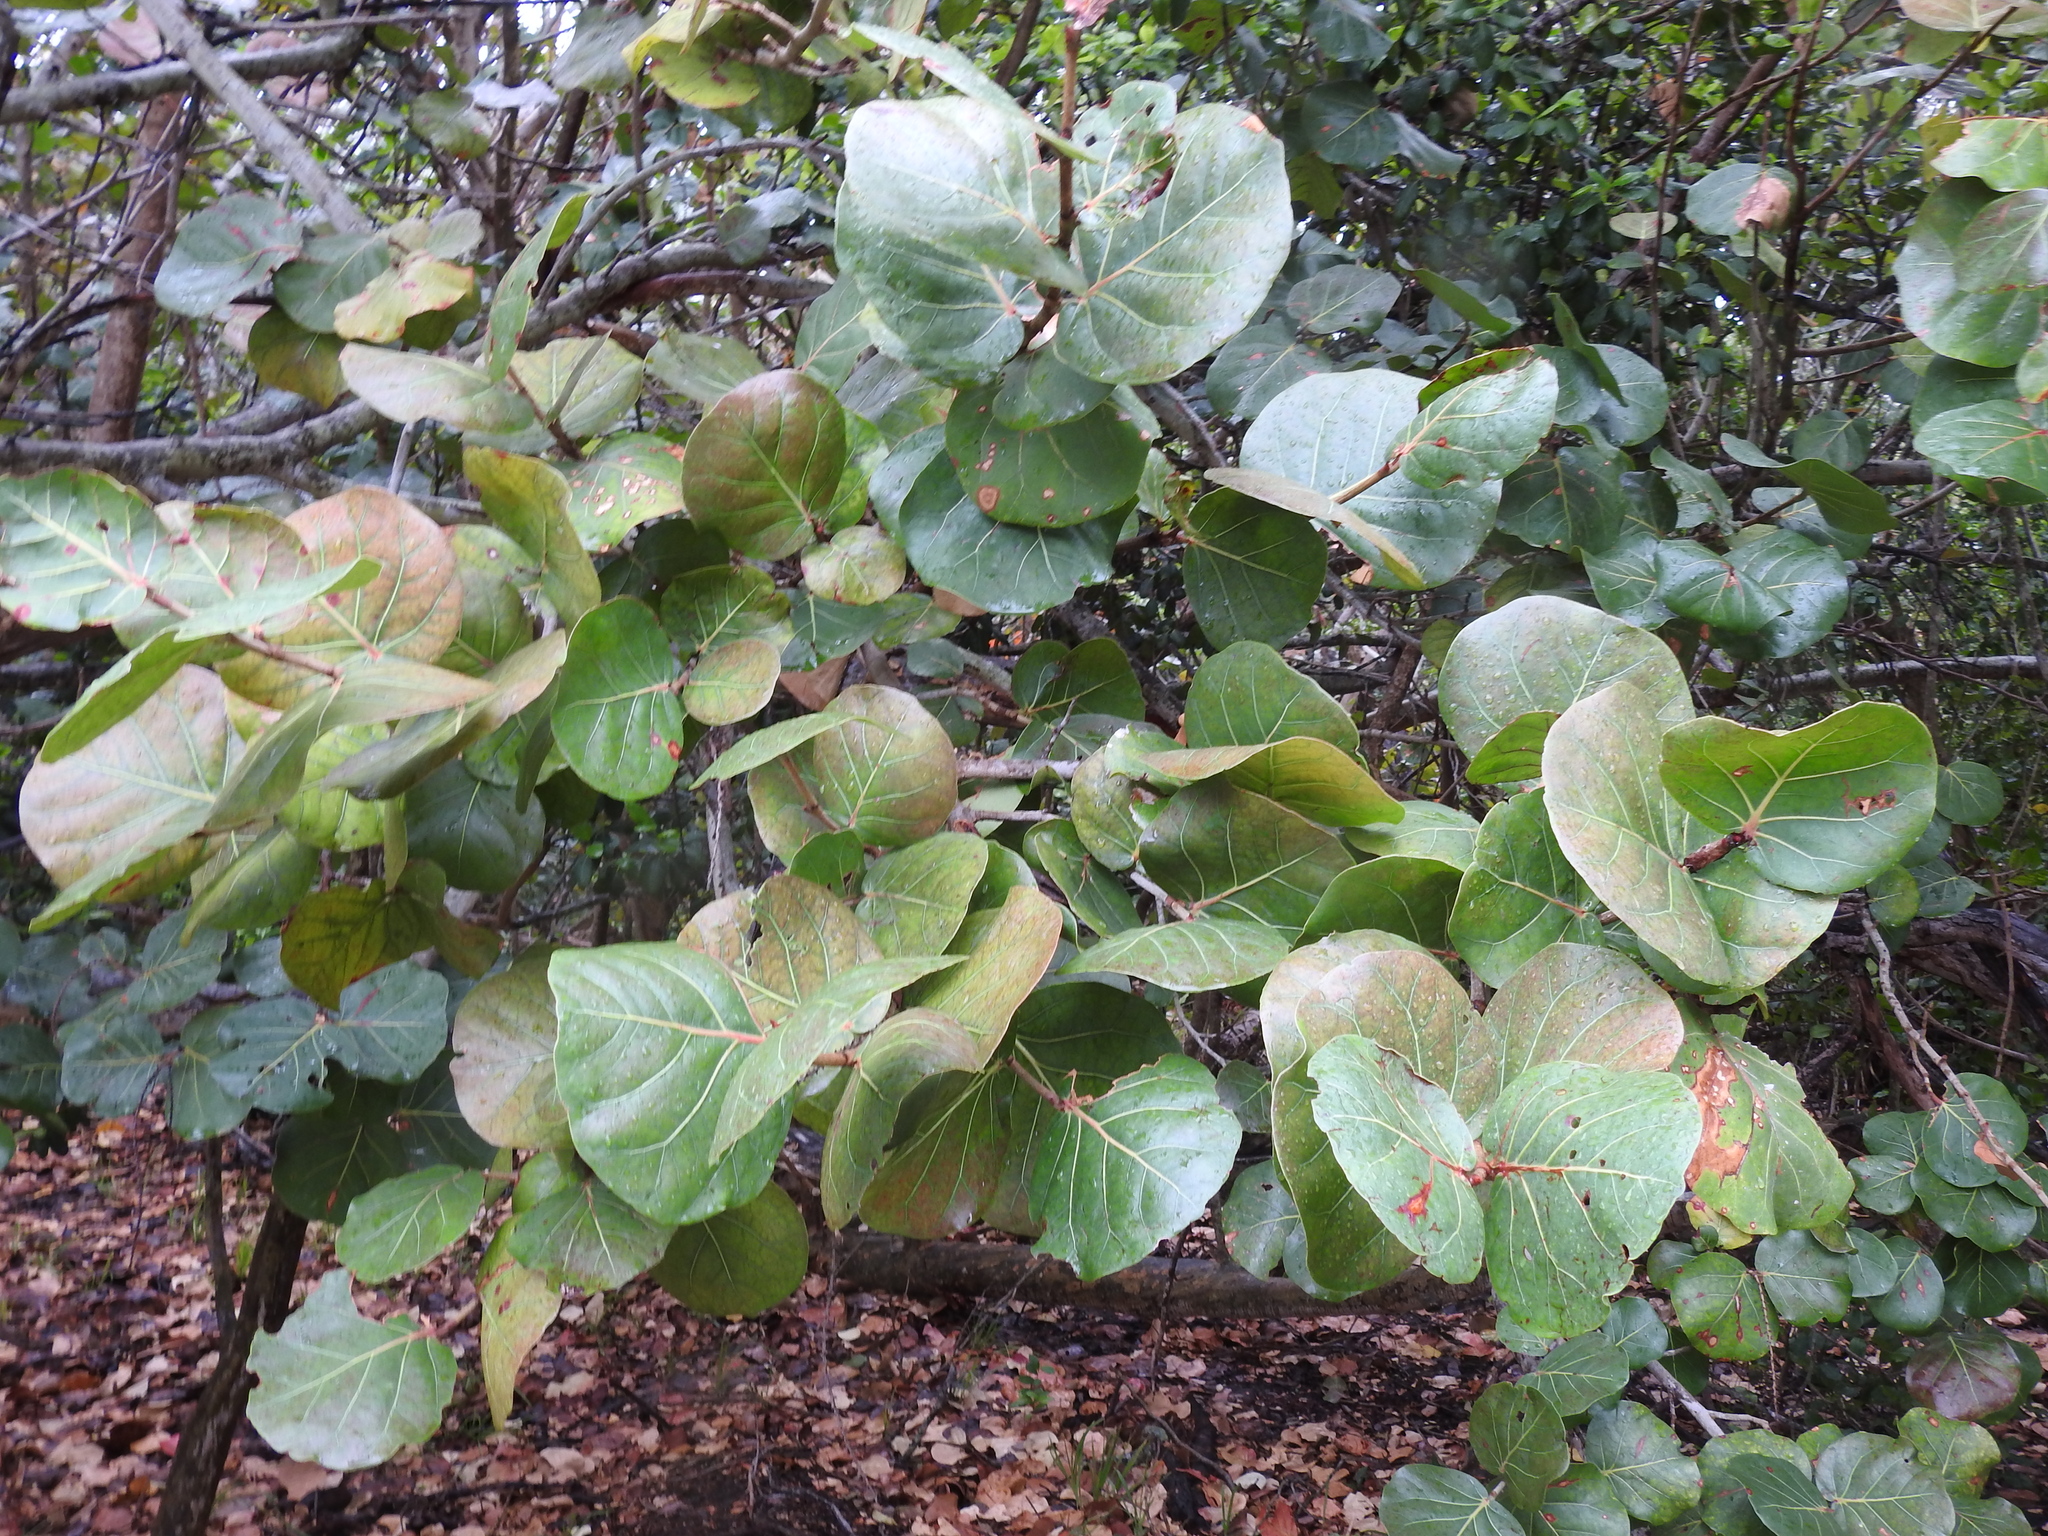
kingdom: Plantae
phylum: Tracheophyta
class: Magnoliopsida
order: Caryophyllales
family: Polygonaceae
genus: Coccoloba
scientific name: Coccoloba uvifera
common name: Seagrape
